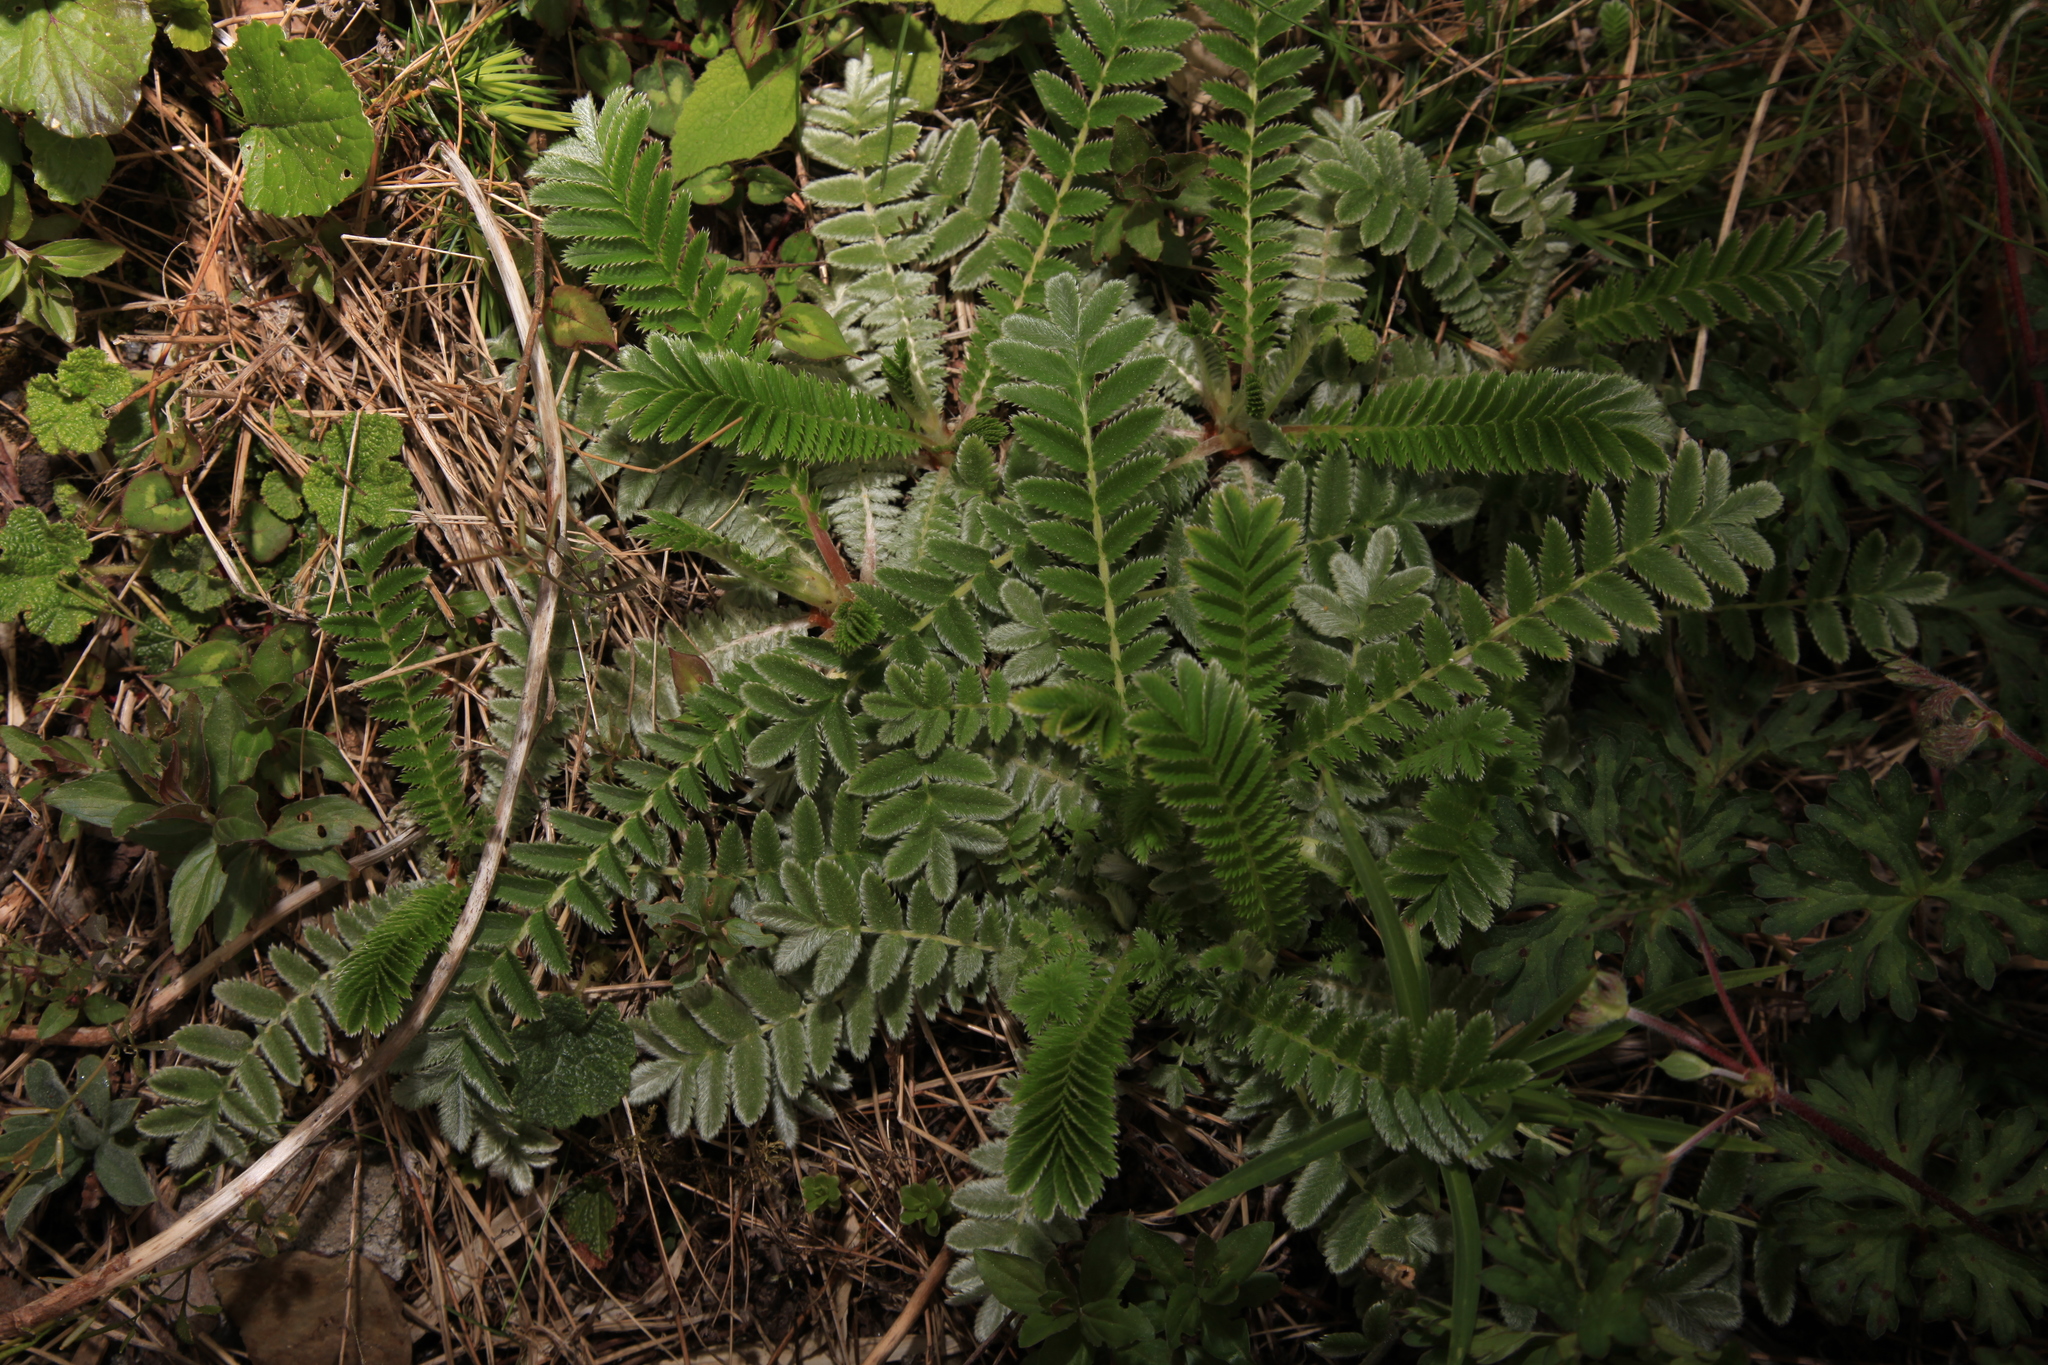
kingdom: Plantae
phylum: Tracheophyta
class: Magnoliopsida
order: Rosales
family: Rosaceae
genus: Argentina
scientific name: Argentina leuconota
